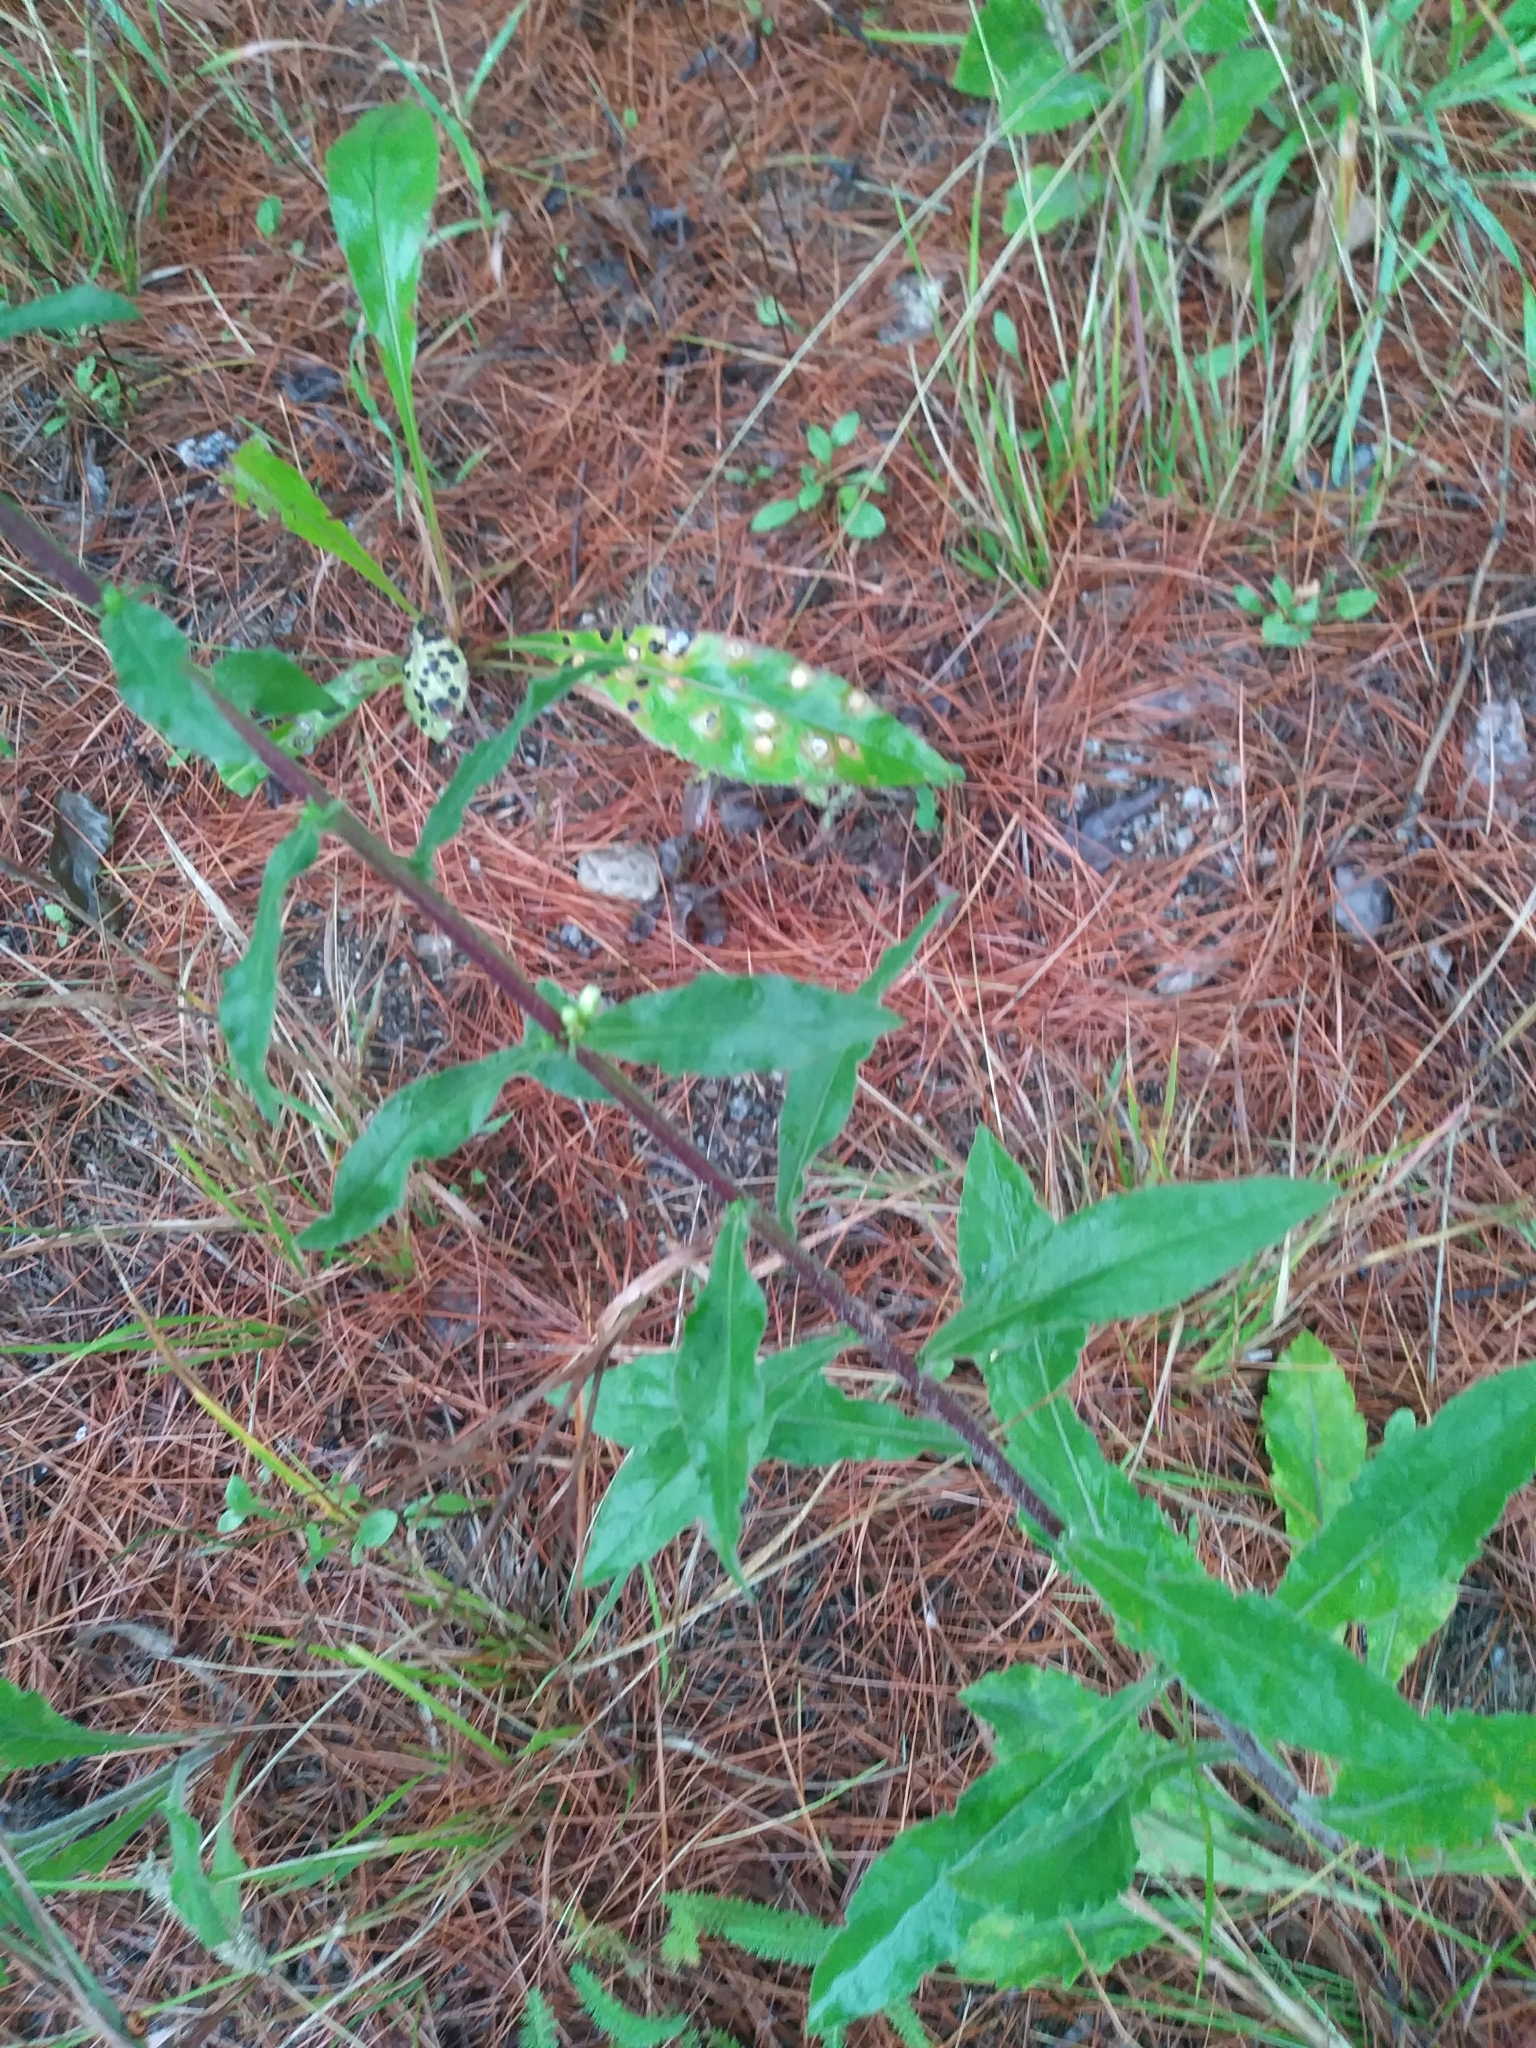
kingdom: Plantae
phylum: Tracheophyta
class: Magnoliopsida
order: Asterales
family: Asteraceae
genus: Solidago
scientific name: Solidago bicolor
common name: Silverrod
